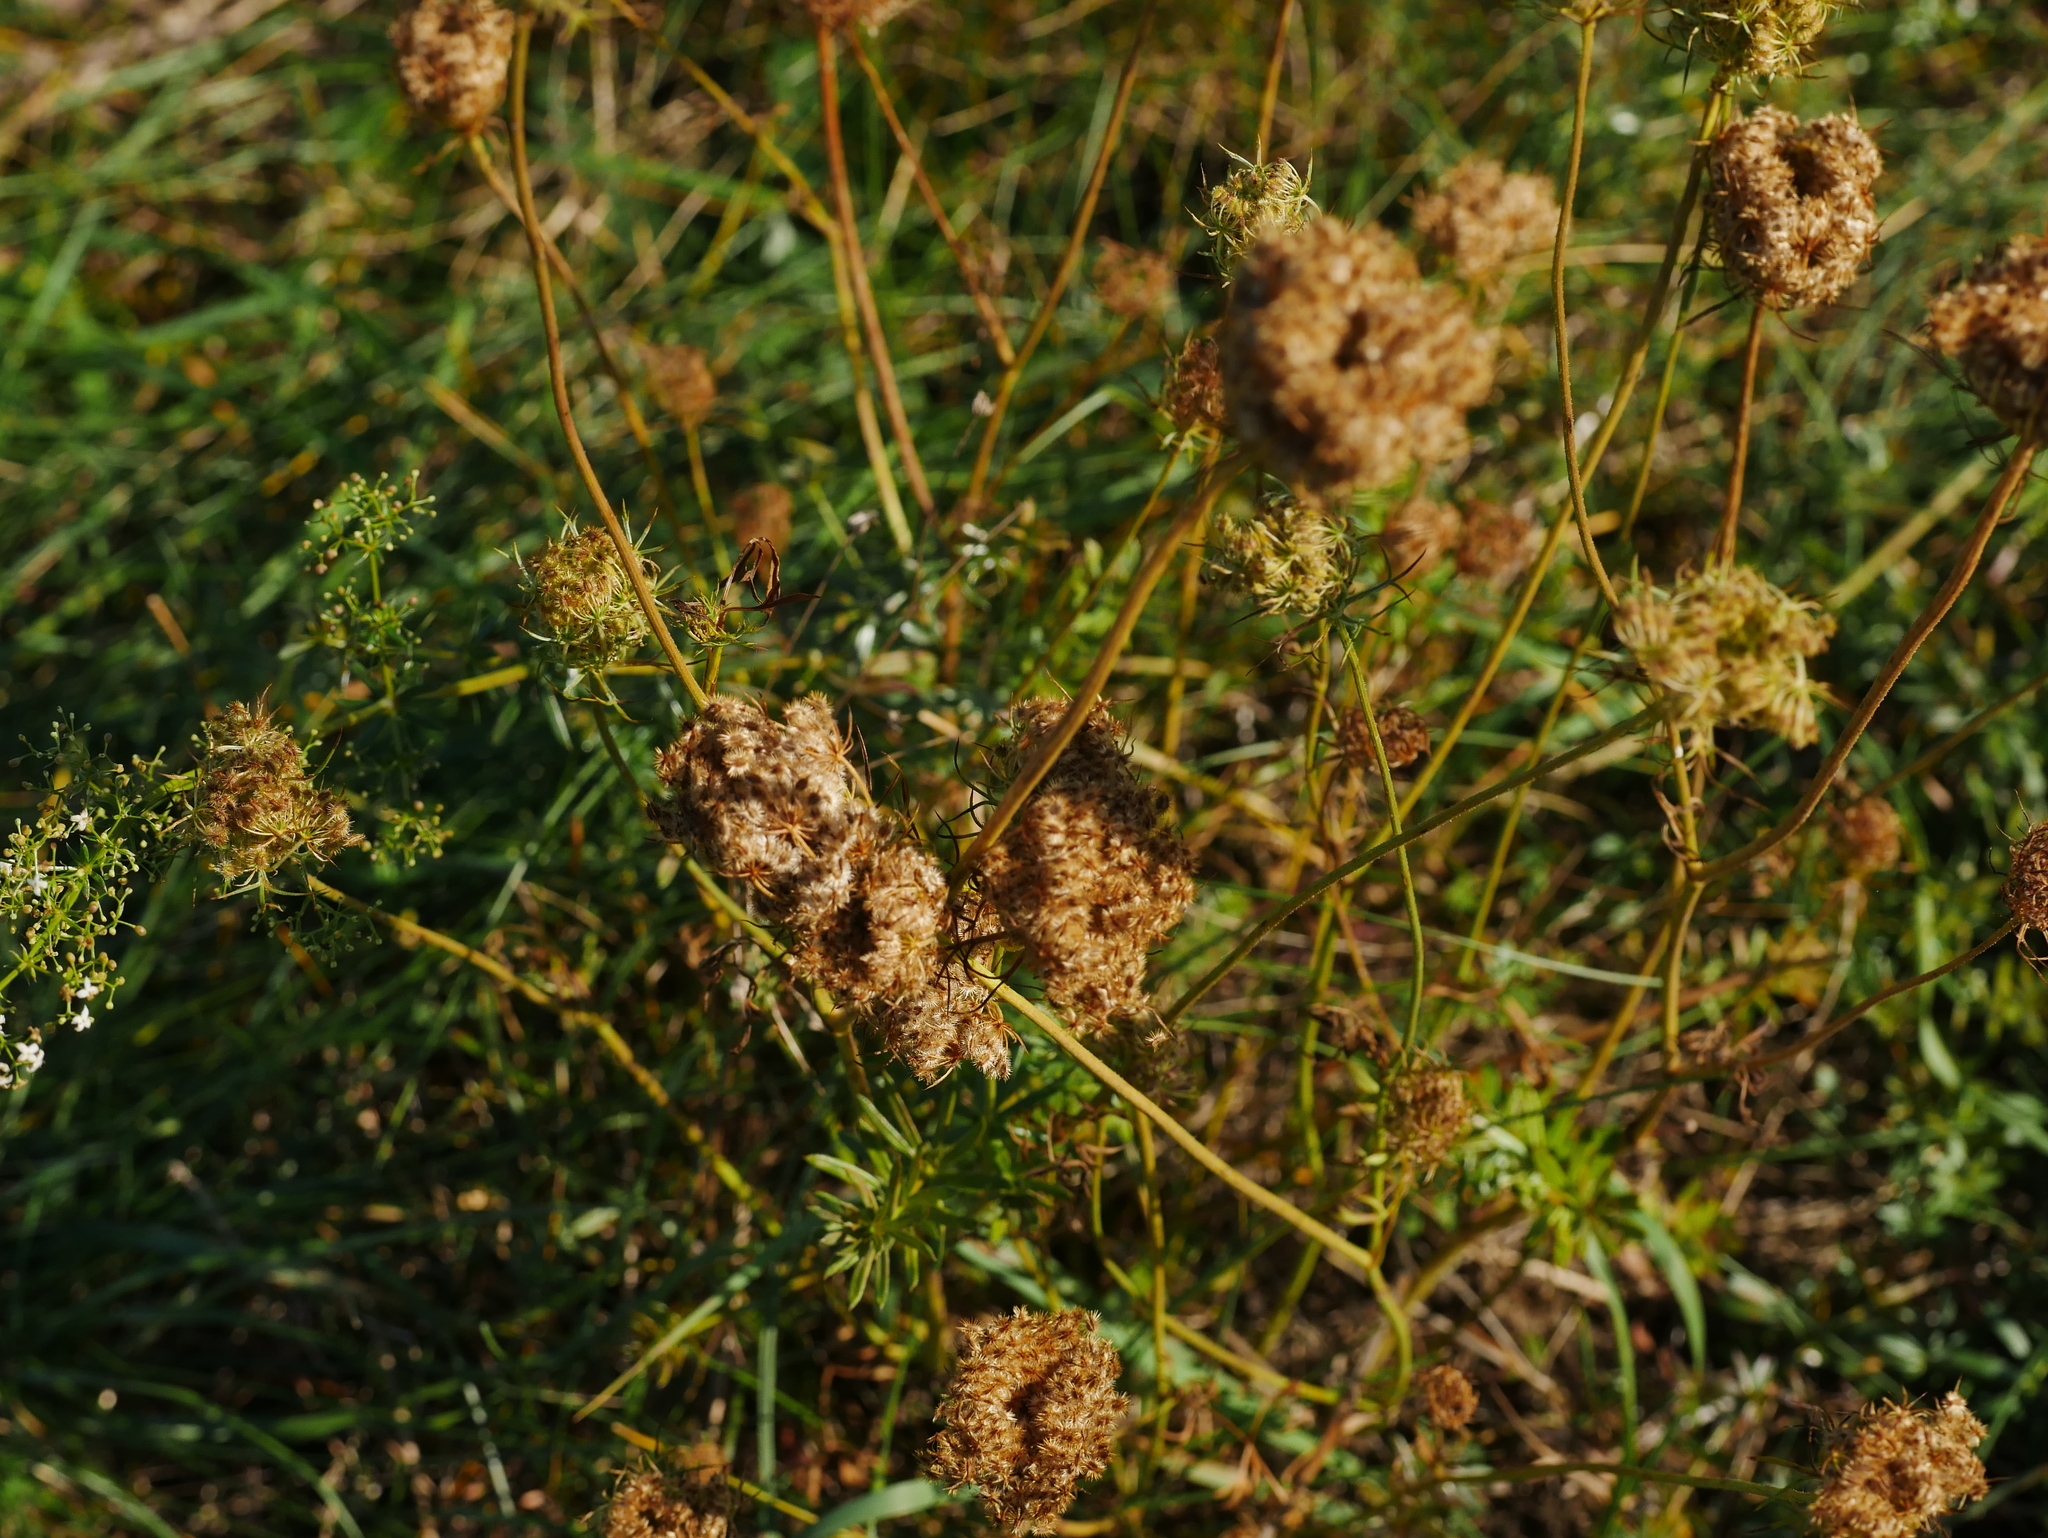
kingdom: Plantae
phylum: Tracheophyta
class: Magnoliopsida
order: Apiales
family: Apiaceae
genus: Daucus
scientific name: Daucus carota
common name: Wild carrot
